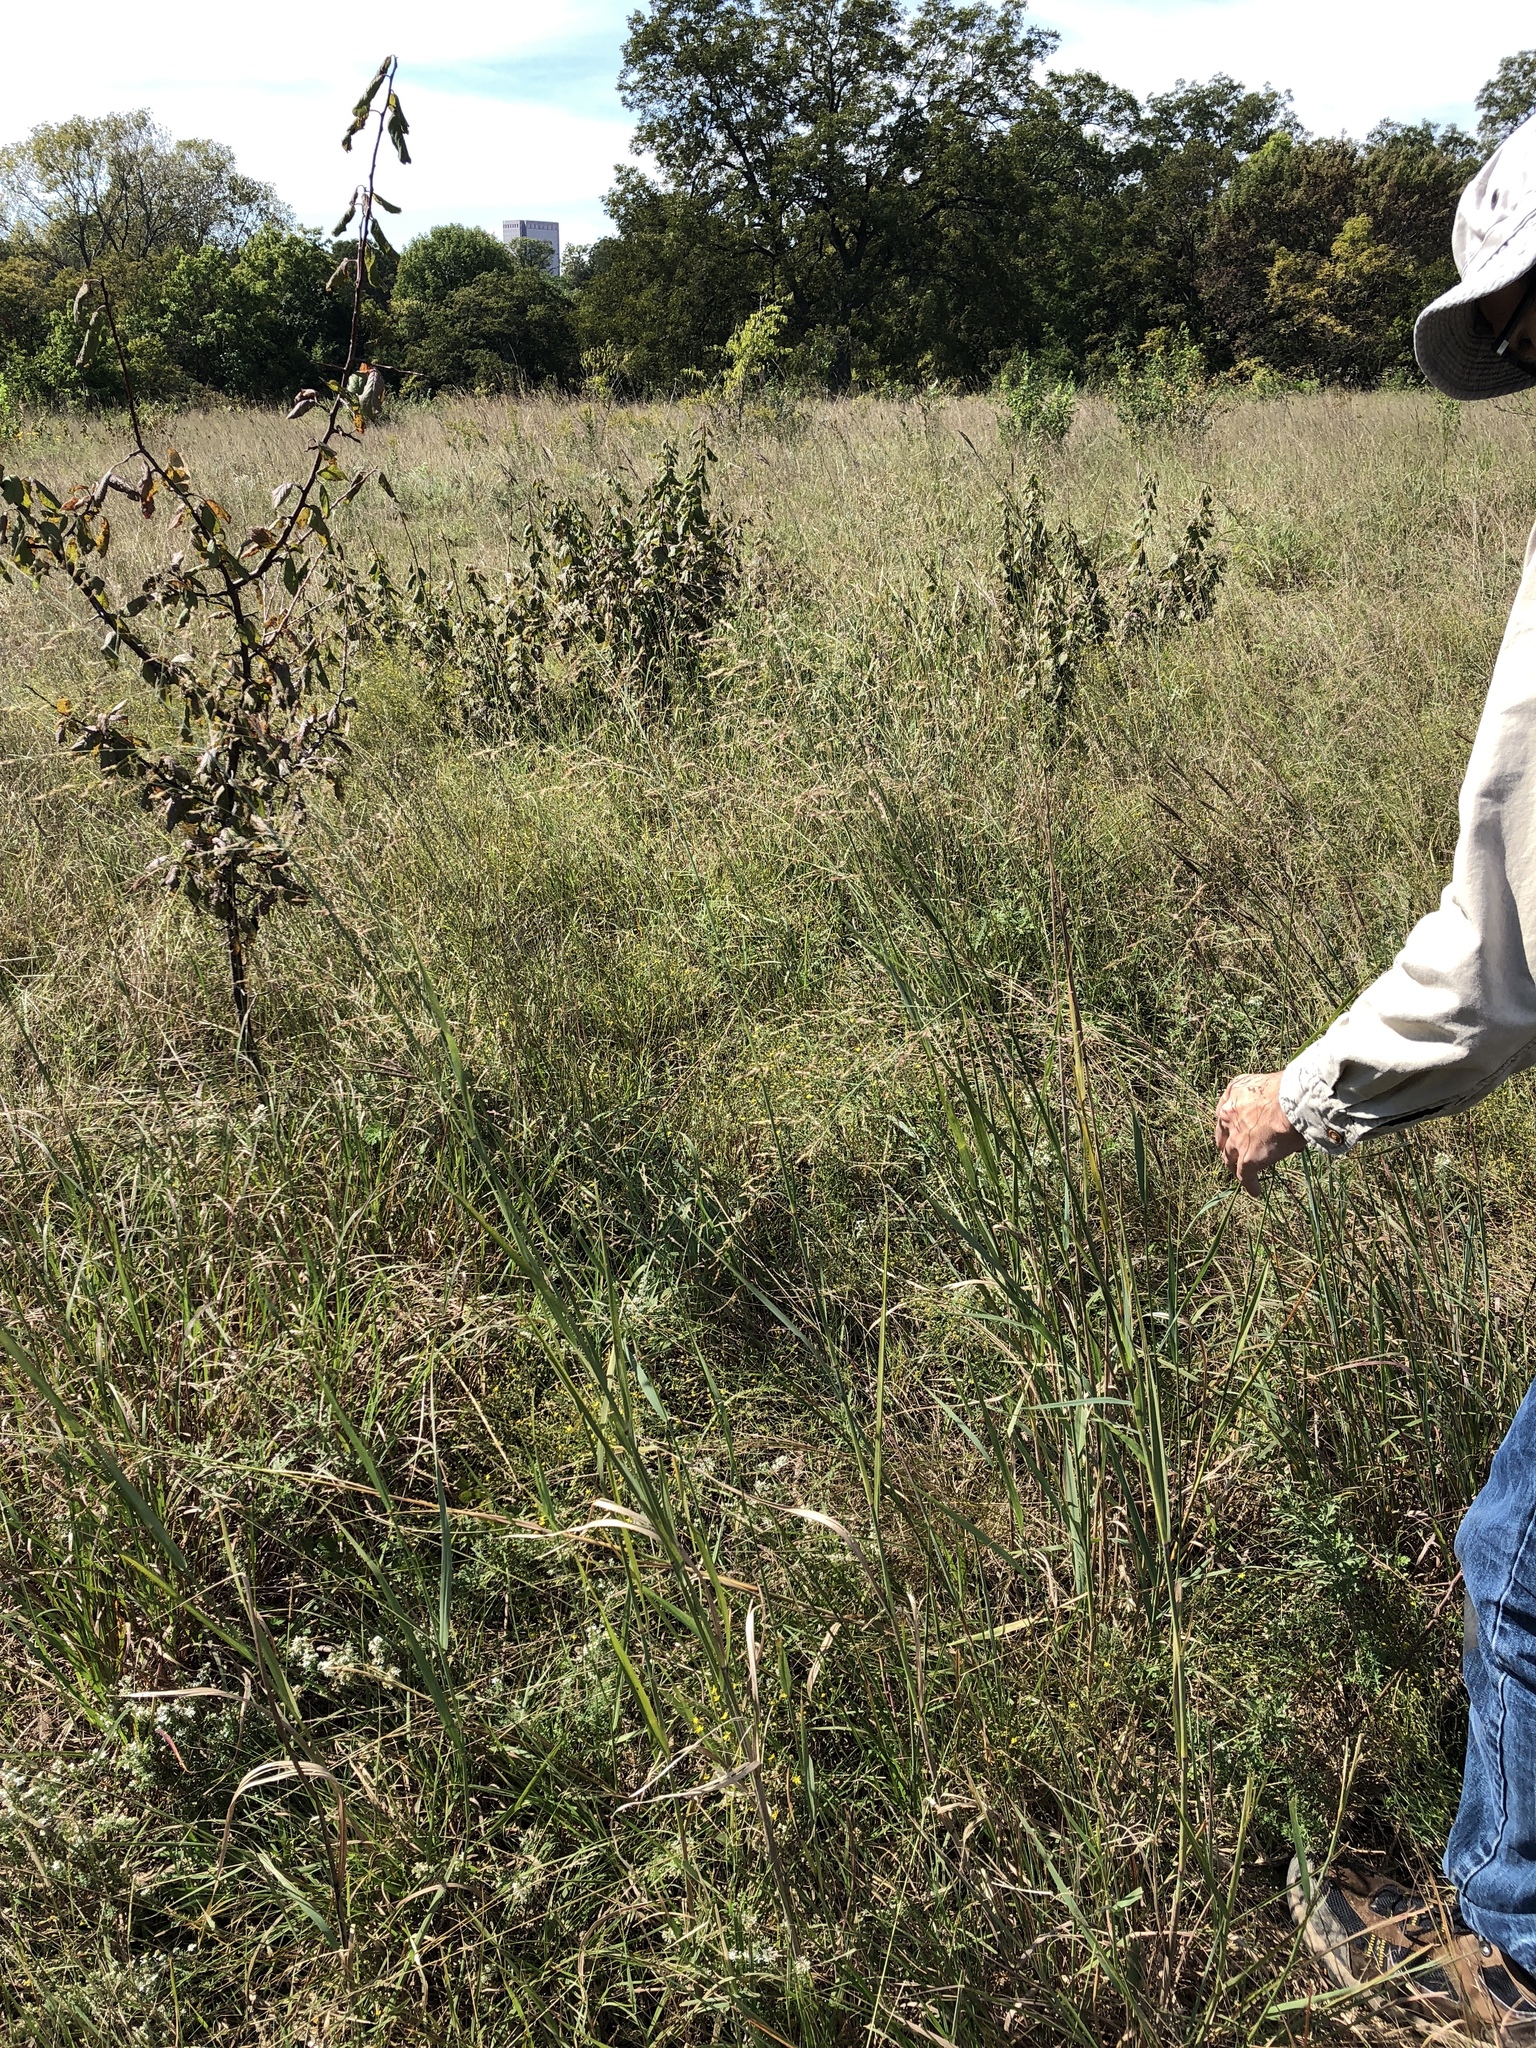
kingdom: Plantae
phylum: Tracheophyta
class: Liliopsida
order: Poales
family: Poaceae
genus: Panicum
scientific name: Panicum virgatum
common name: Switchgrass
